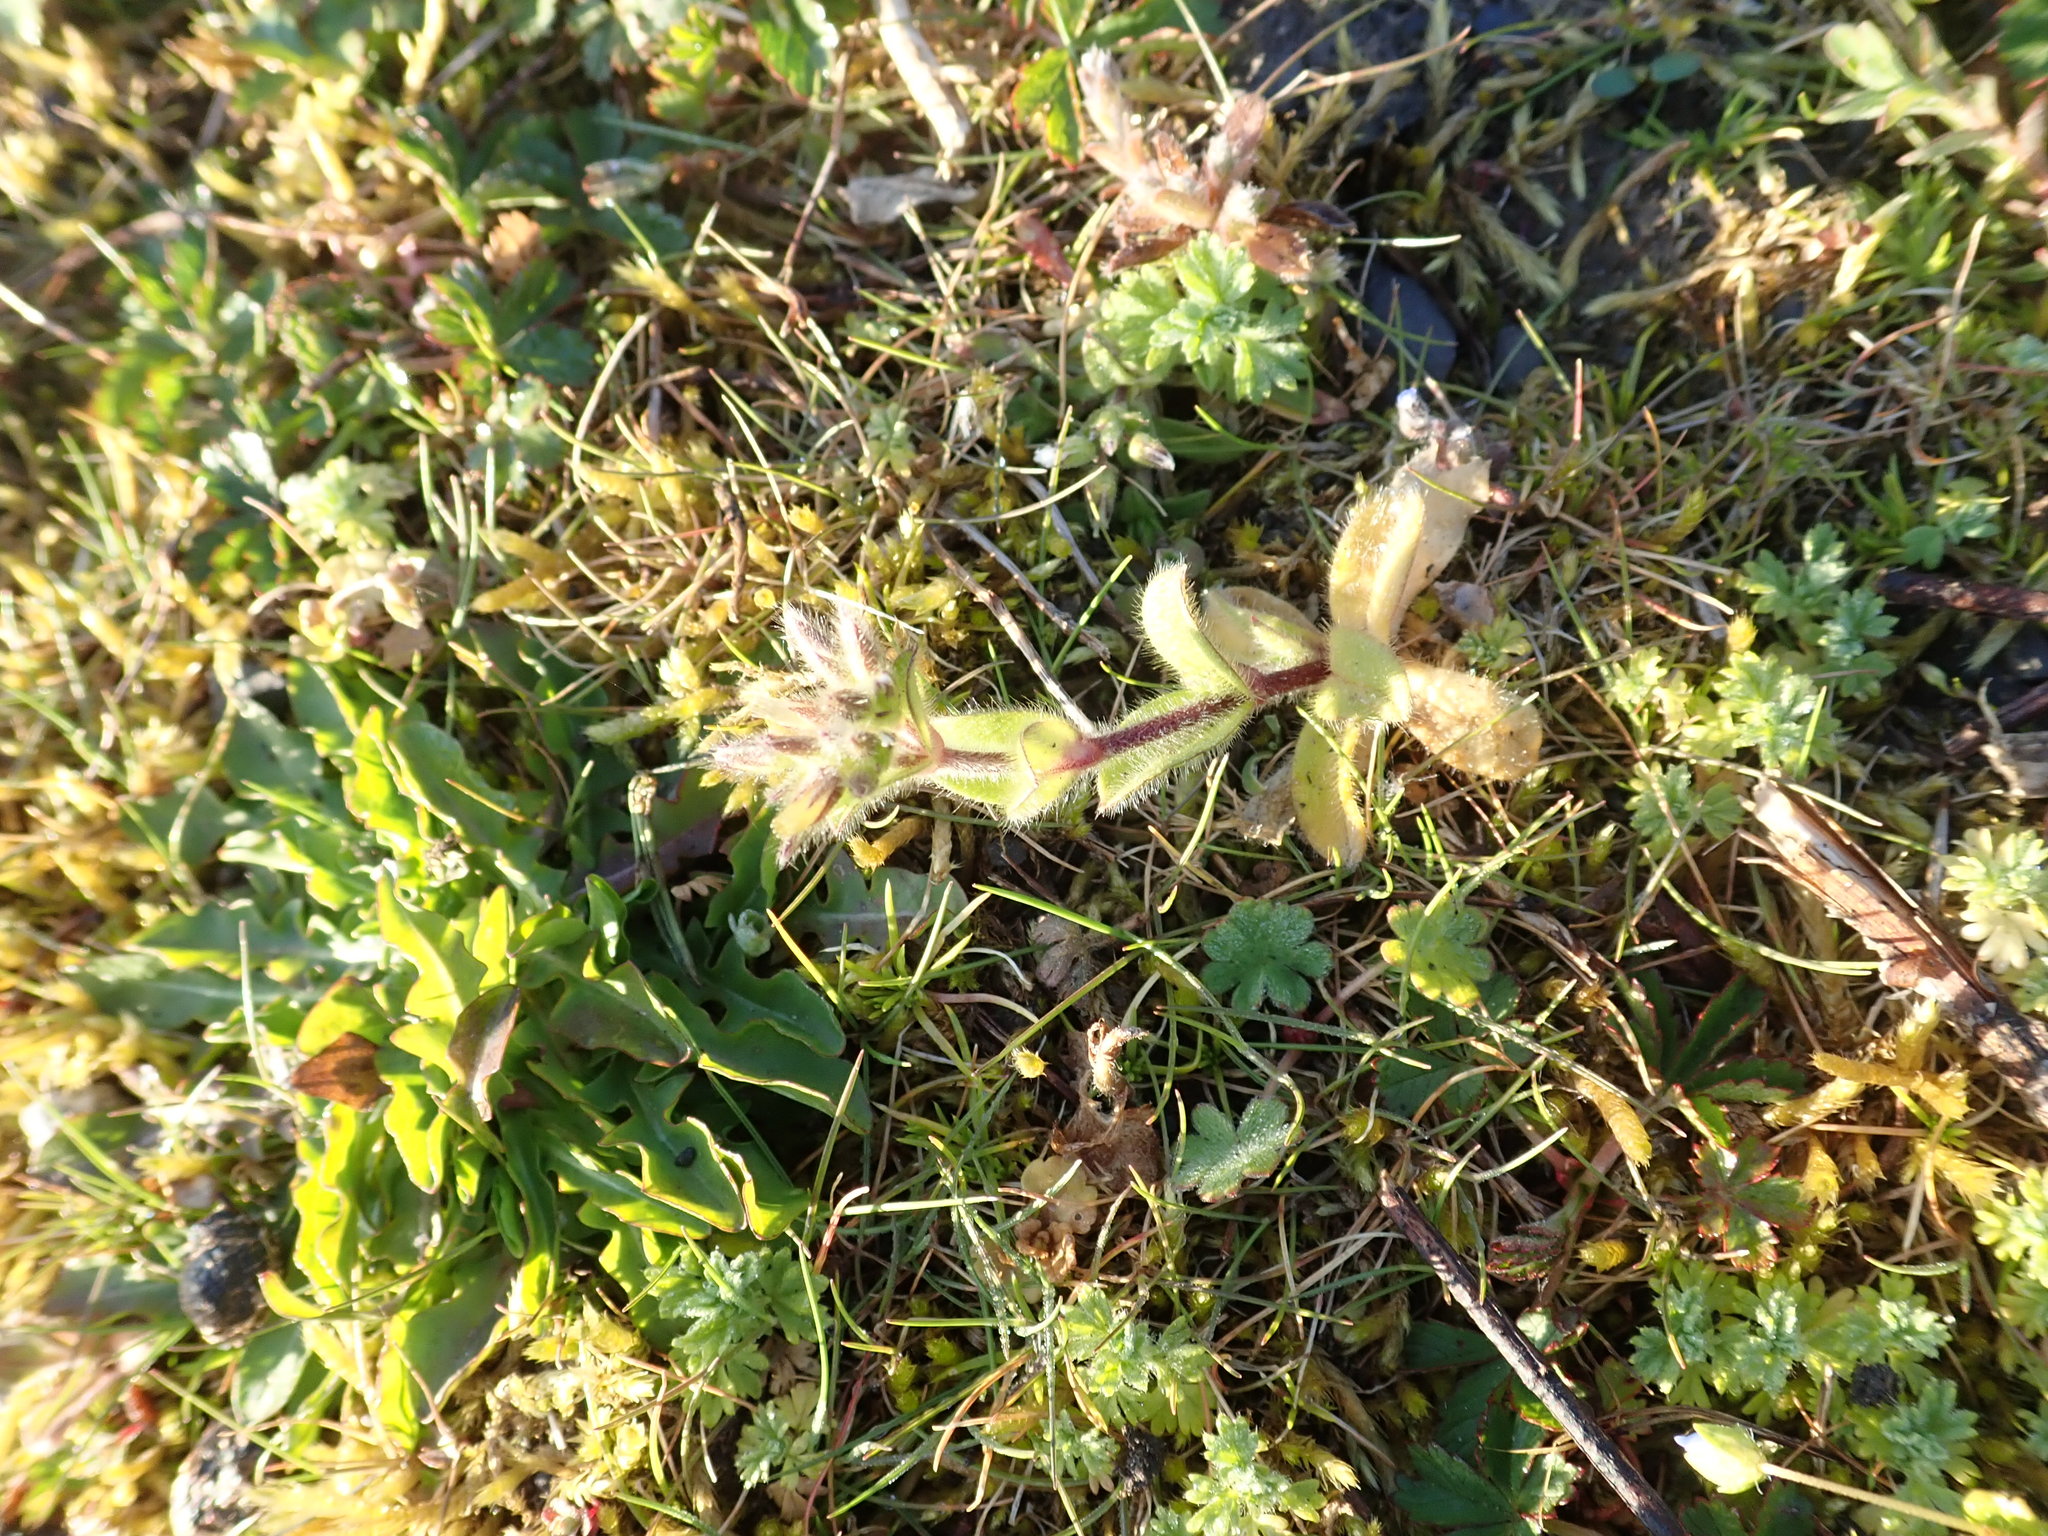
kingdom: Plantae
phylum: Tracheophyta
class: Magnoliopsida
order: Caryophyllales
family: Caryophyllaceae
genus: Cerastium
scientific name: Cerastium glomeratum
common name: Sticky chickweed
